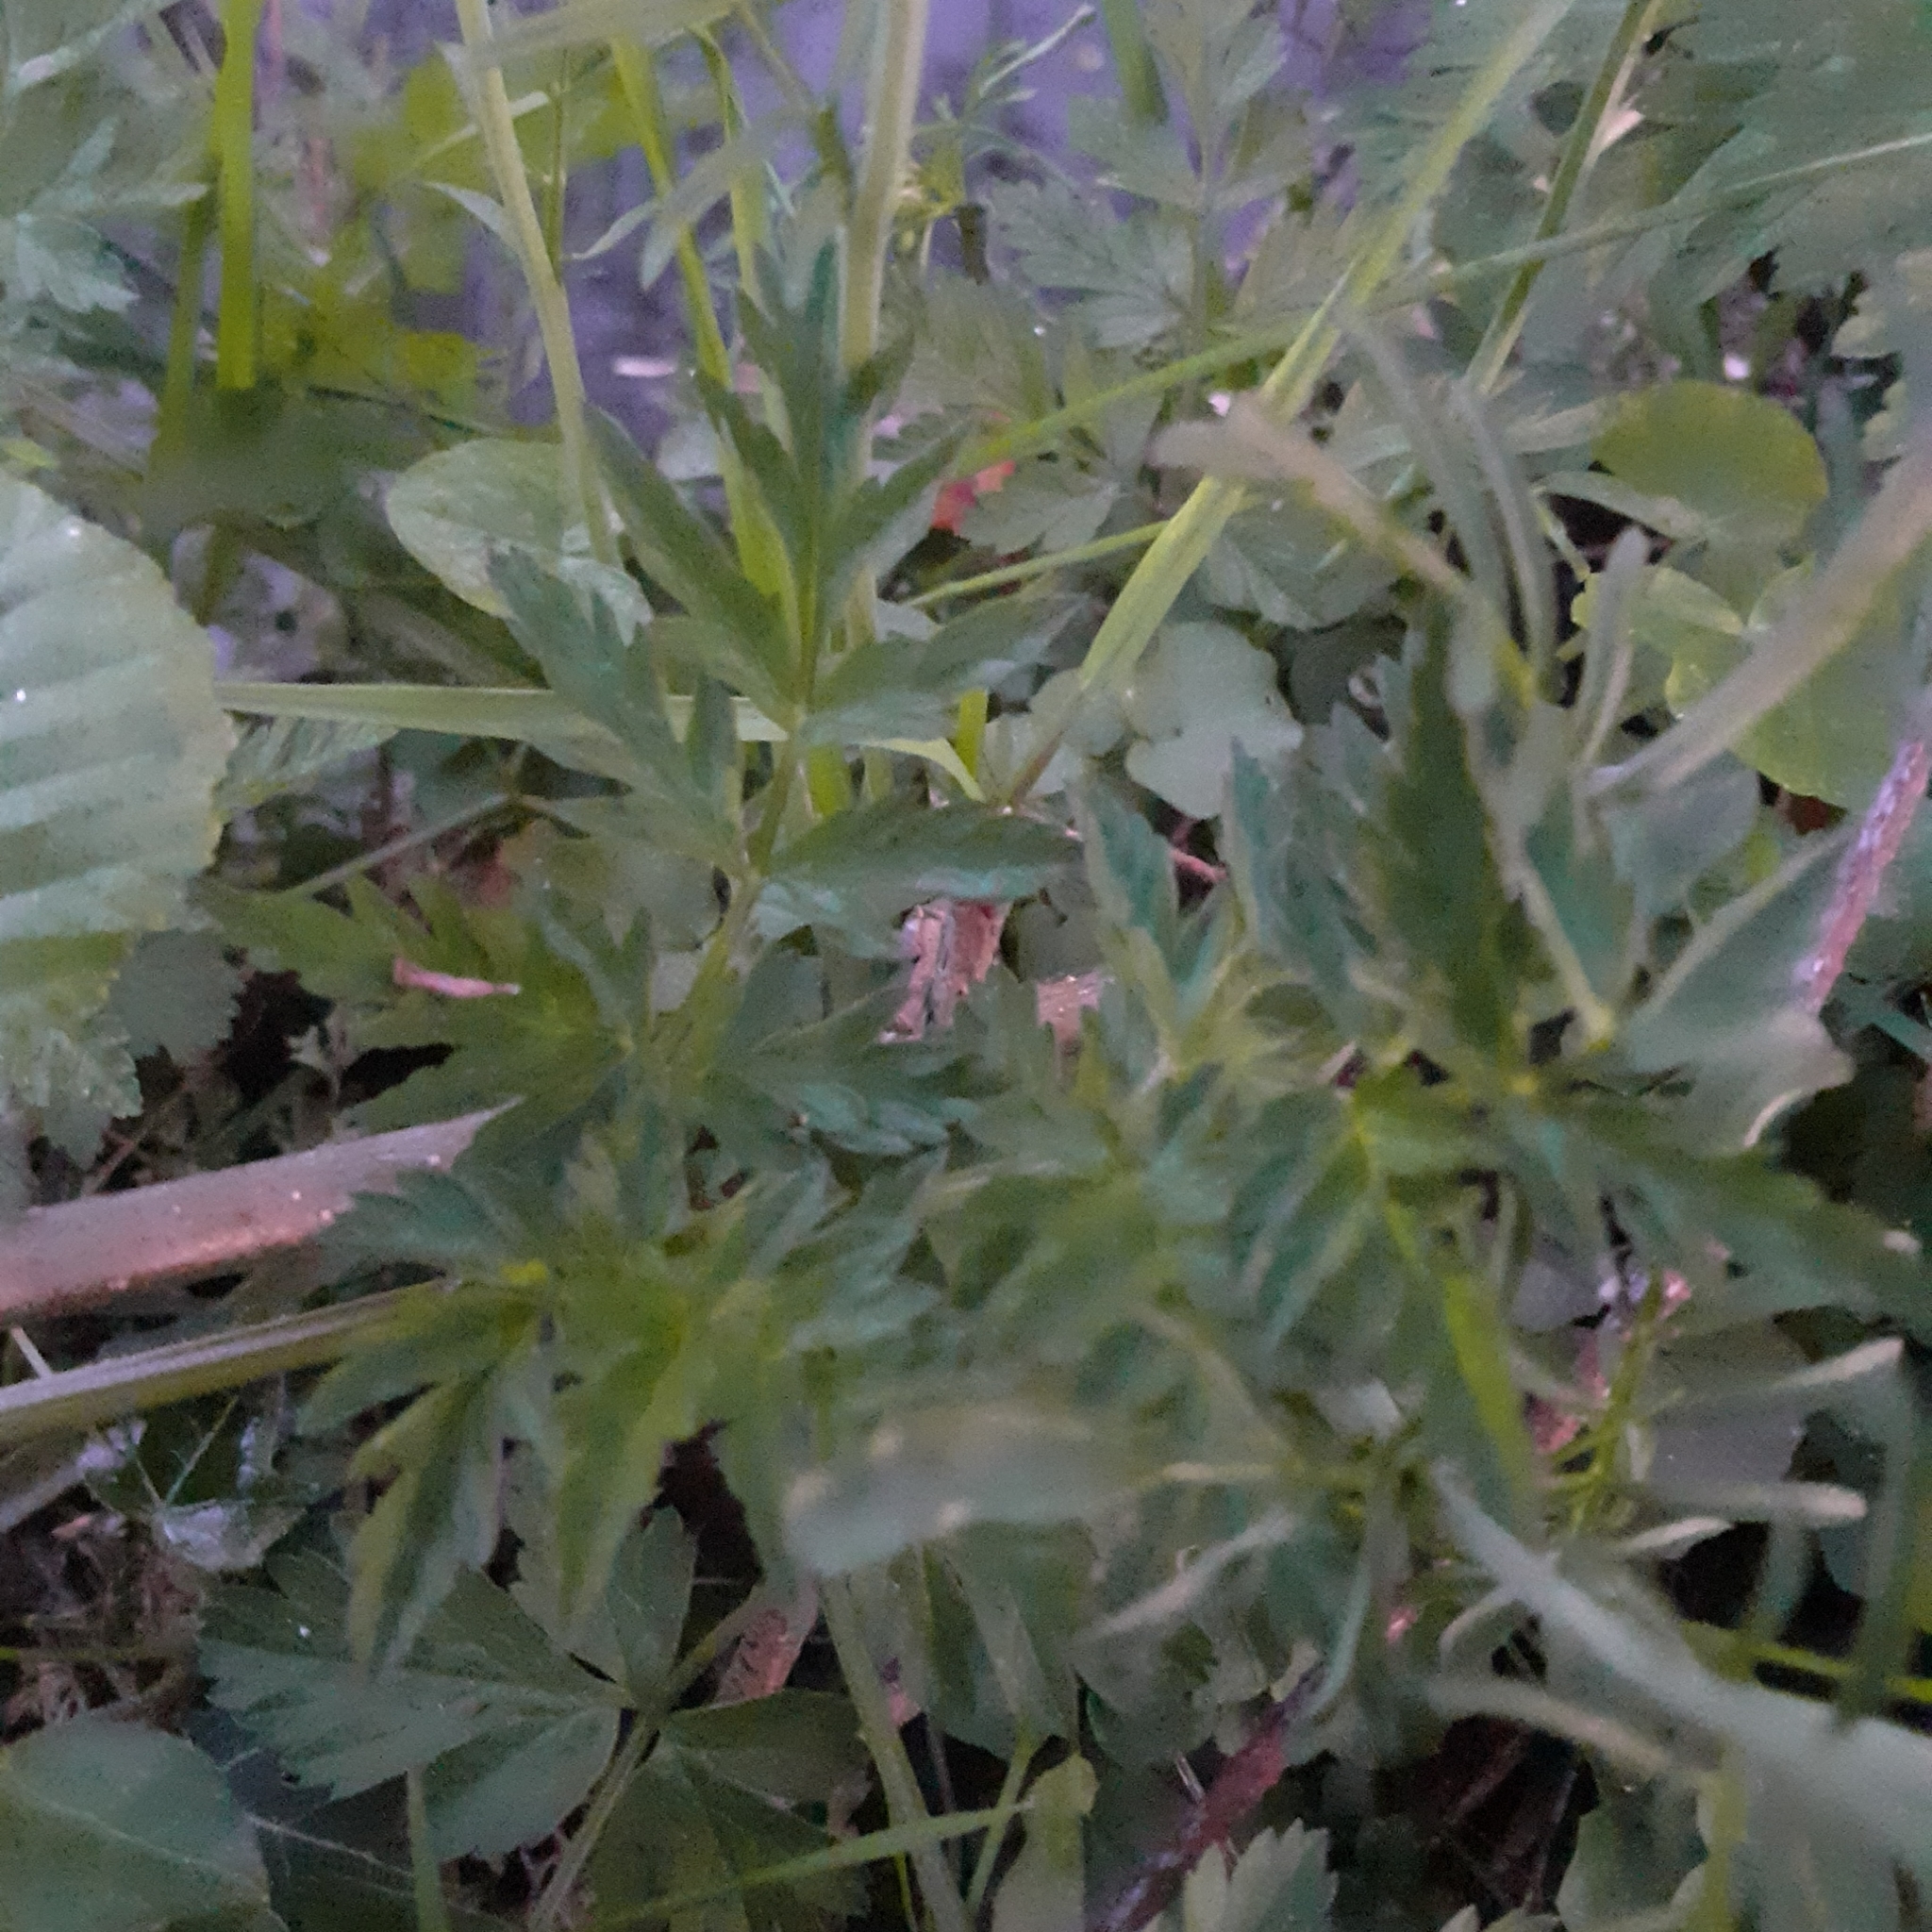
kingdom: Plantae
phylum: Tracheophyta
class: Magnoliopsida
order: Brassicales
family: Brassicaceae
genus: Cardamine
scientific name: Cardamine pratensis
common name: Cuckoo flower
